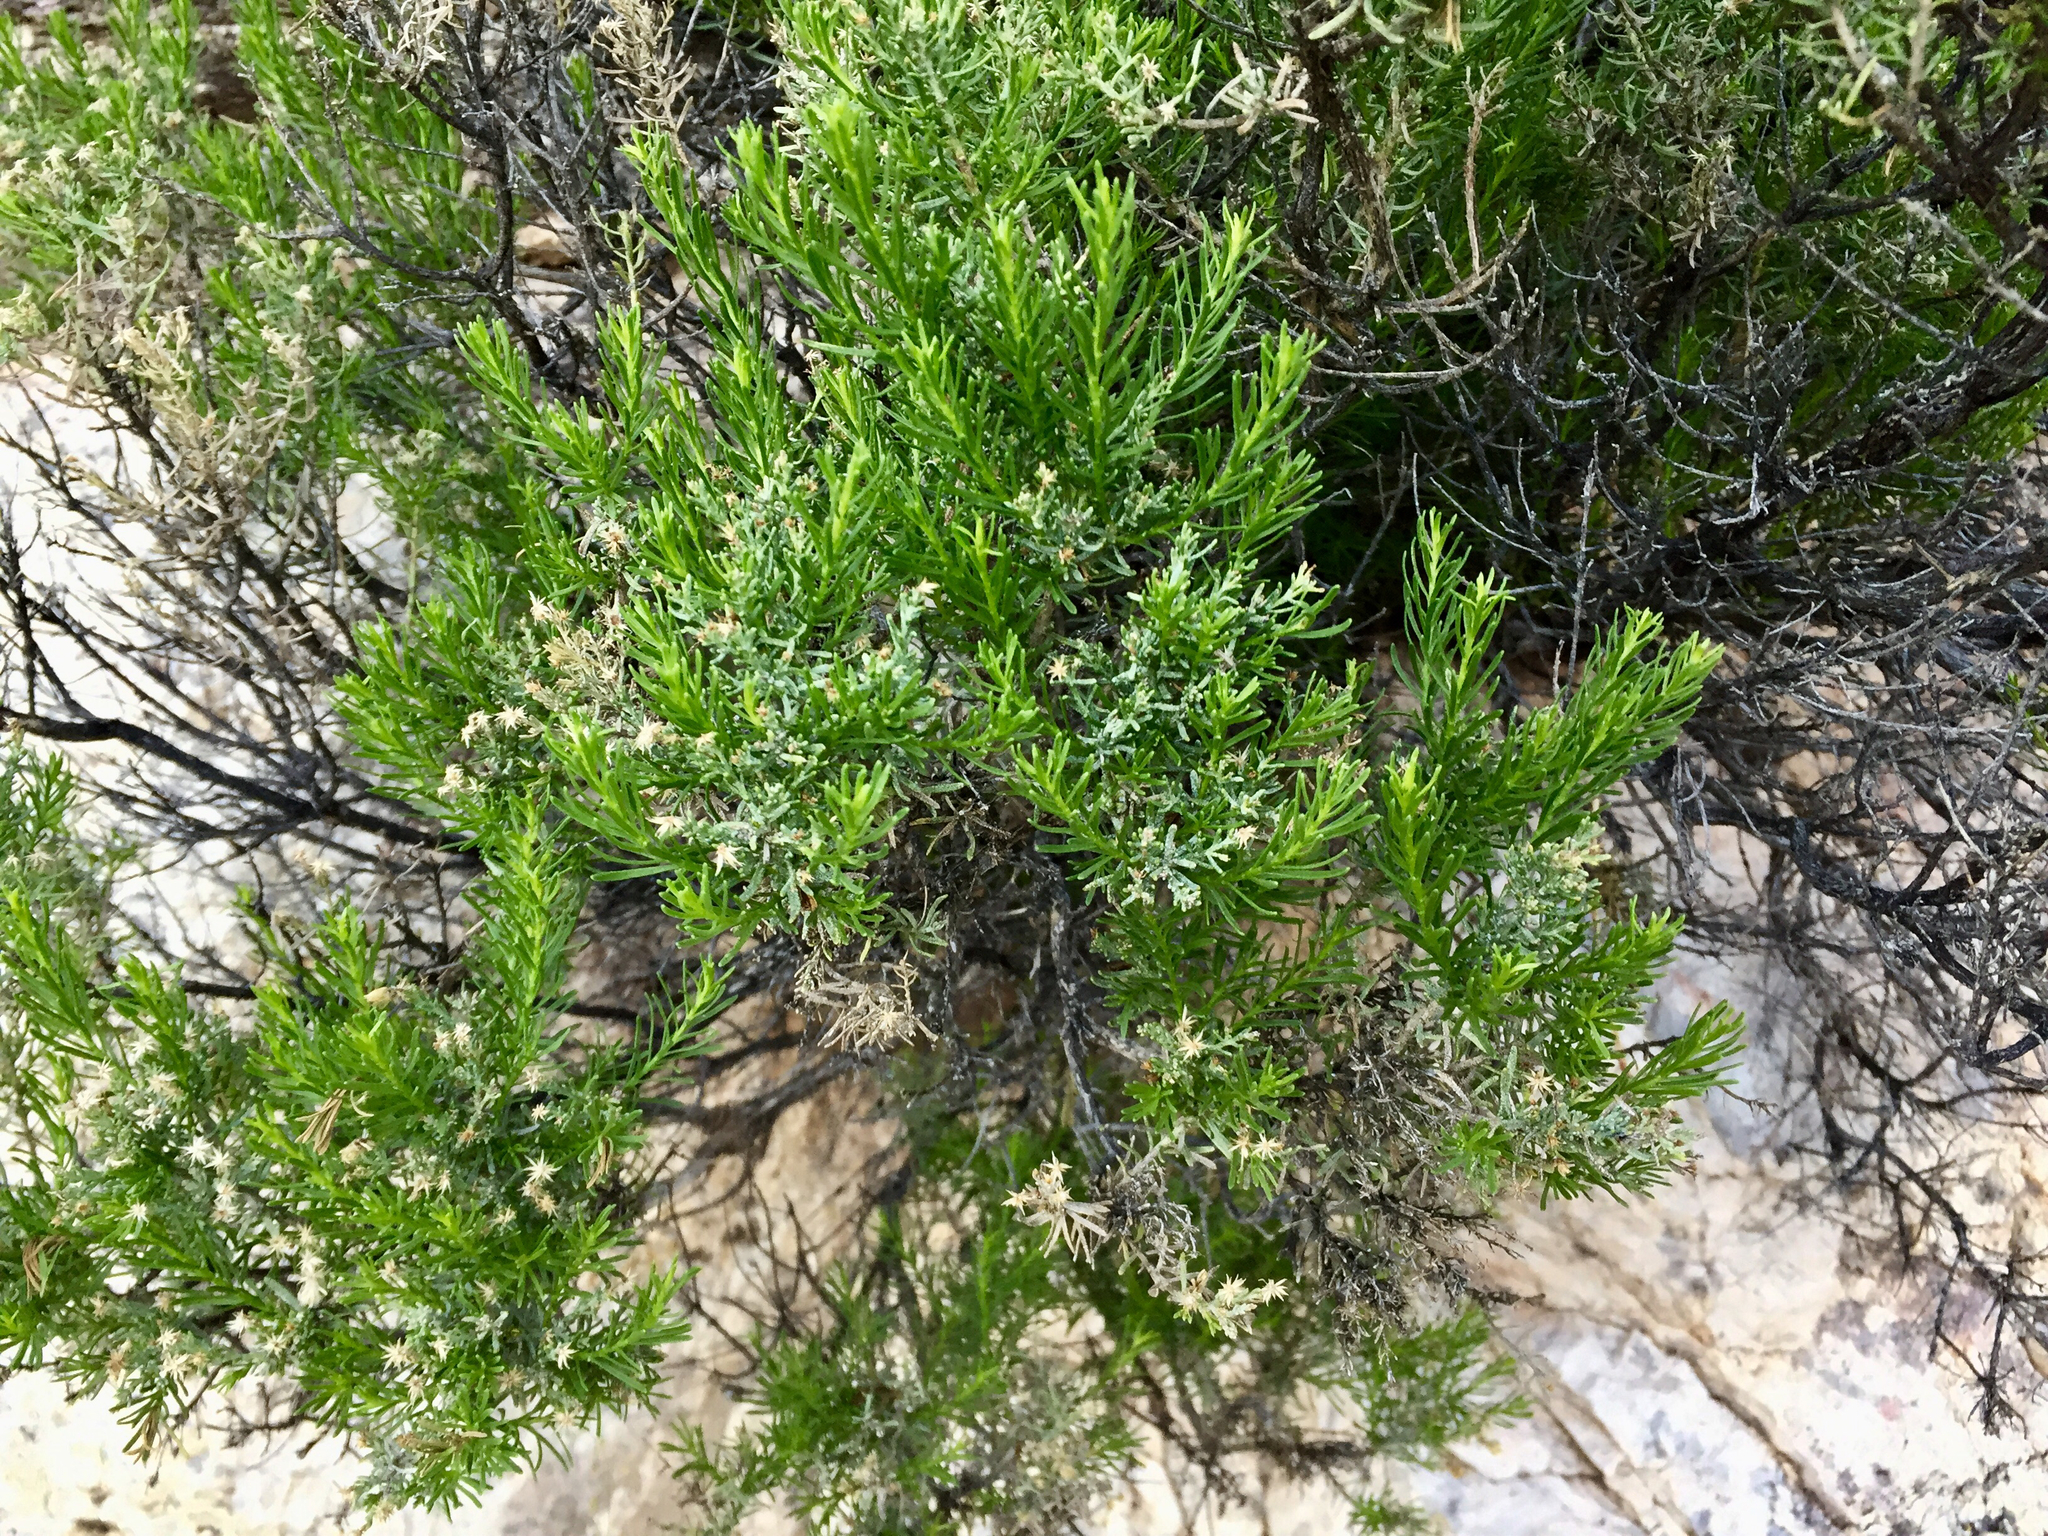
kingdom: Plantae
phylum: Tracheophyta
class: Magnoliopsida
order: Asterales
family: Asteraceae
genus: Ericameria
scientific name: Ericameria laricifolia
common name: Turpentine-bush
